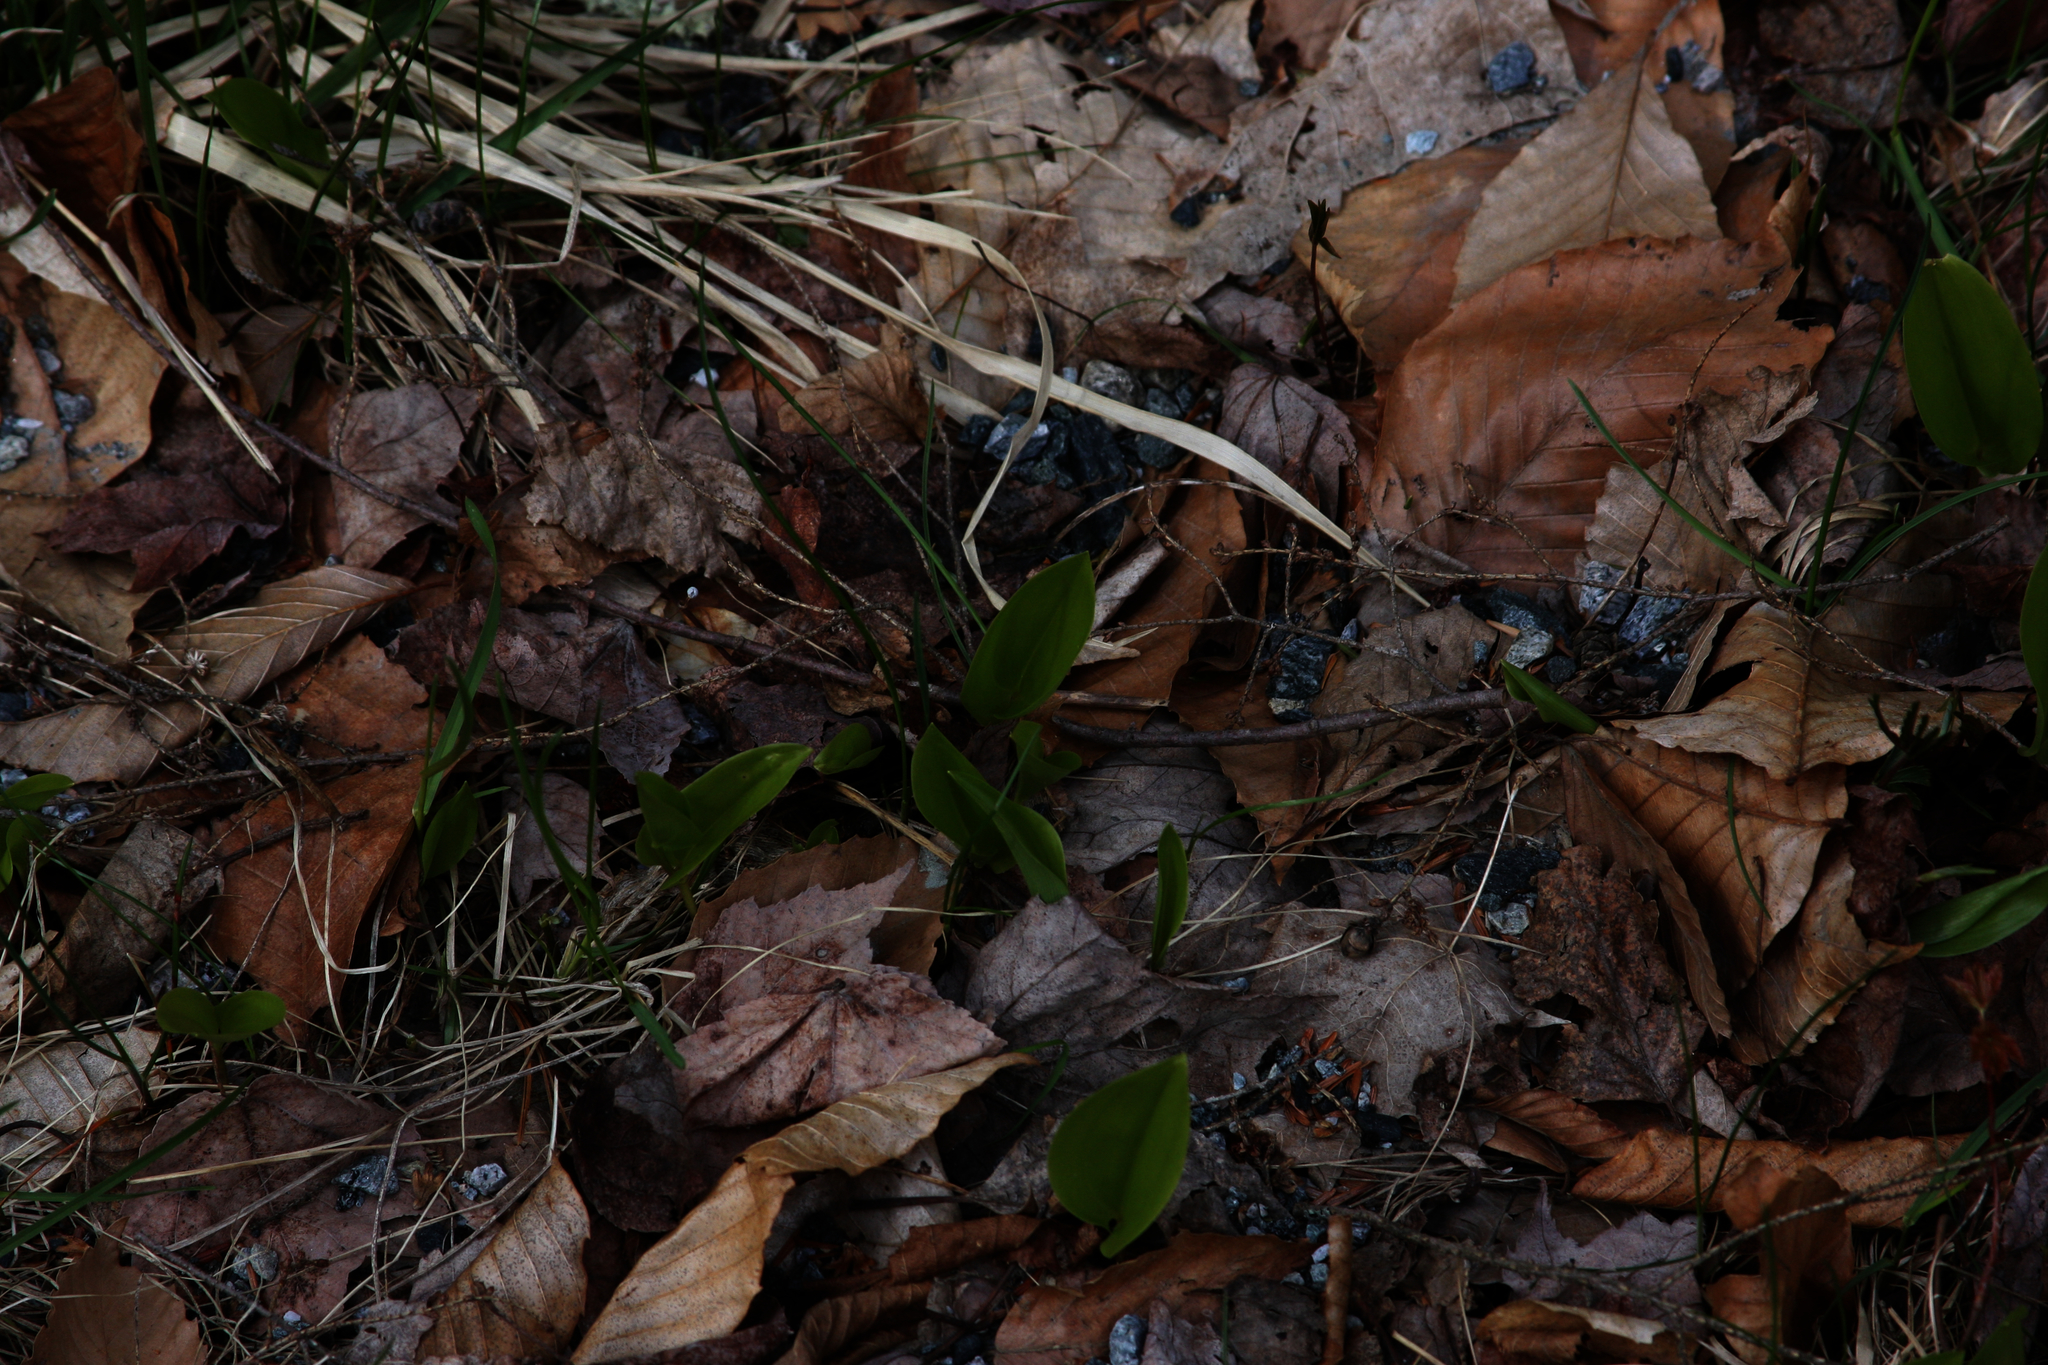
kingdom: Plantae
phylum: Tracheophyta
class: Liliopsida
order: Asparagales
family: Asparagaceae
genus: Maianthemum
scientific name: Maianthemum canadense
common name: False lily-of-the-valley
